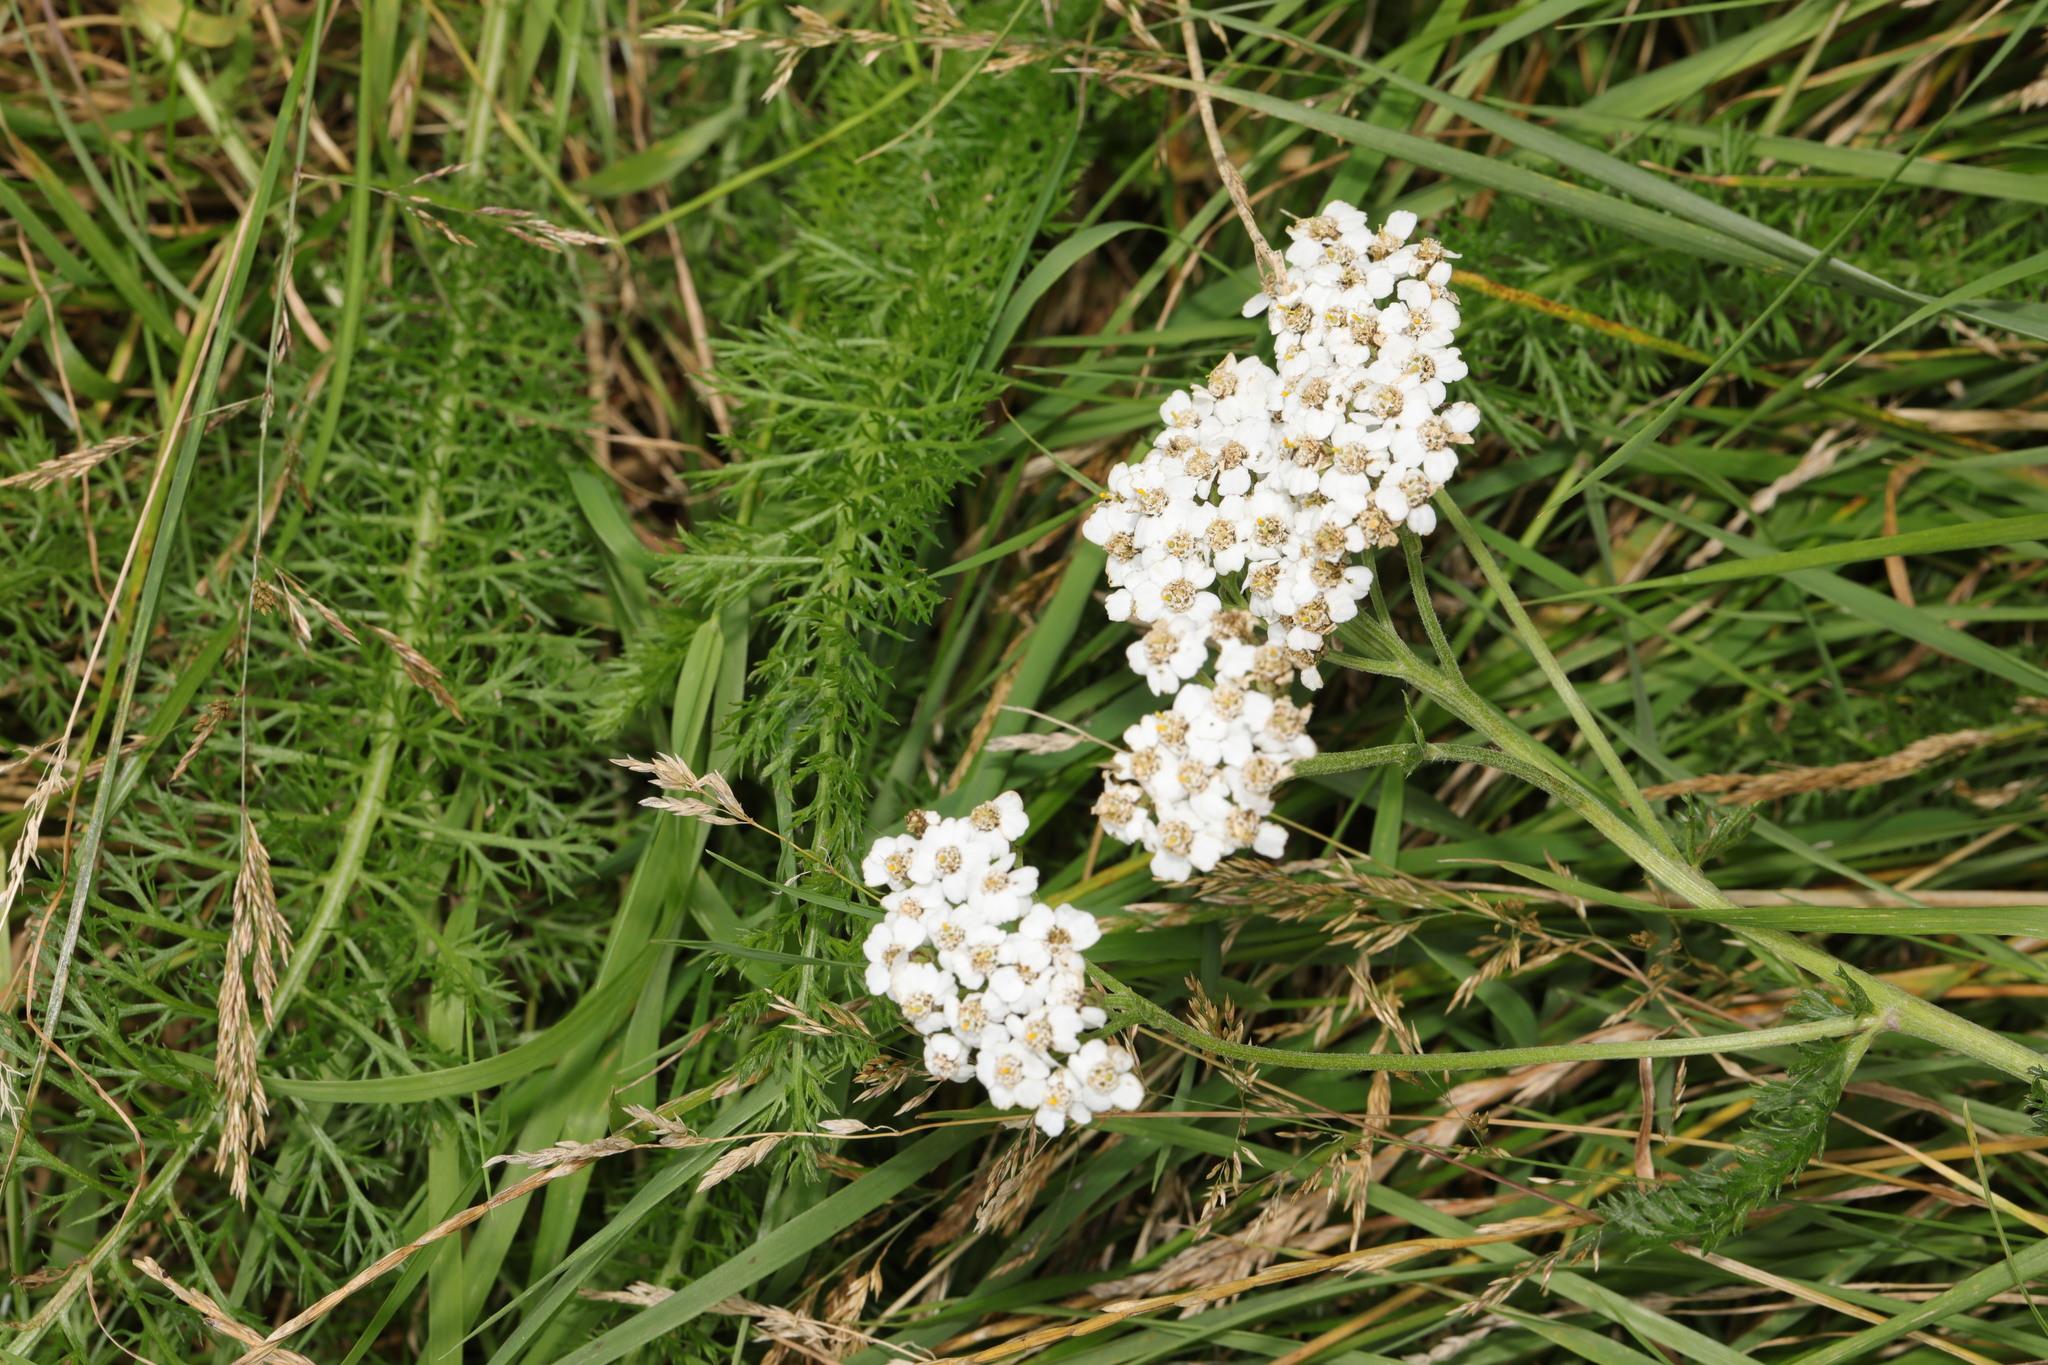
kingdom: Plantae
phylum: Tracheophyta
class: Magnoliopsida
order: Asterales
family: Asteraceae
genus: Achillea
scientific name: Achillea millefolium
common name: Yarrow
